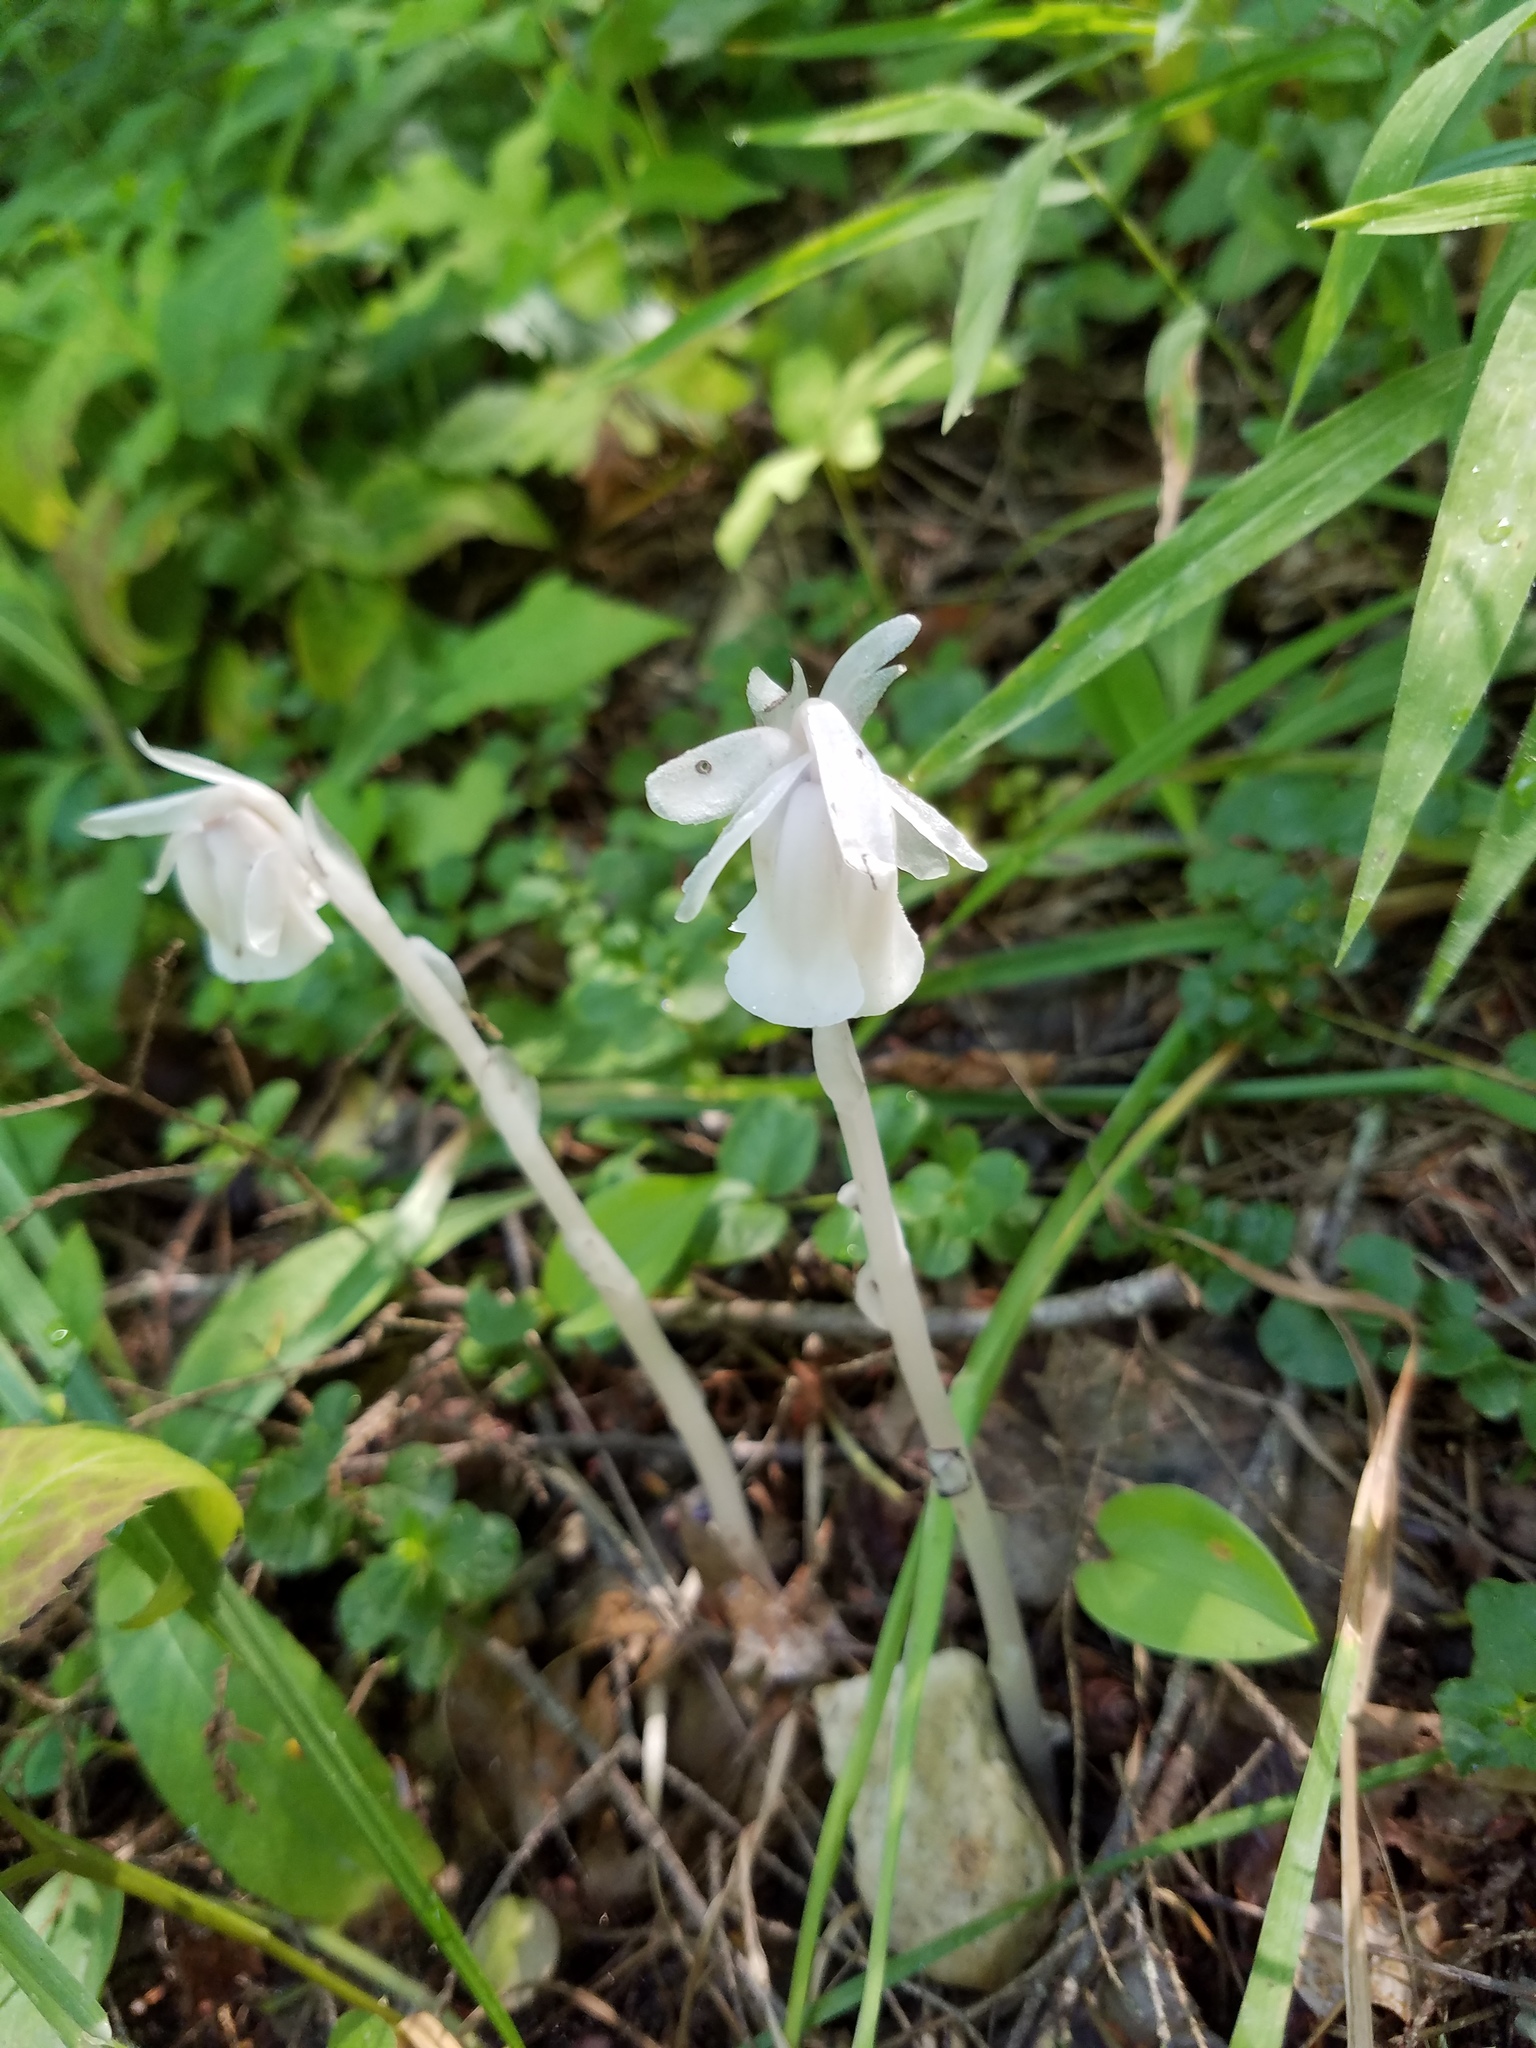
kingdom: Plantae
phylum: Tracheophyta
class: Magnoliopsida
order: Ericales
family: Ericaceae
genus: Monotropa
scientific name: Monotropa uniflora
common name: Convulsion root
